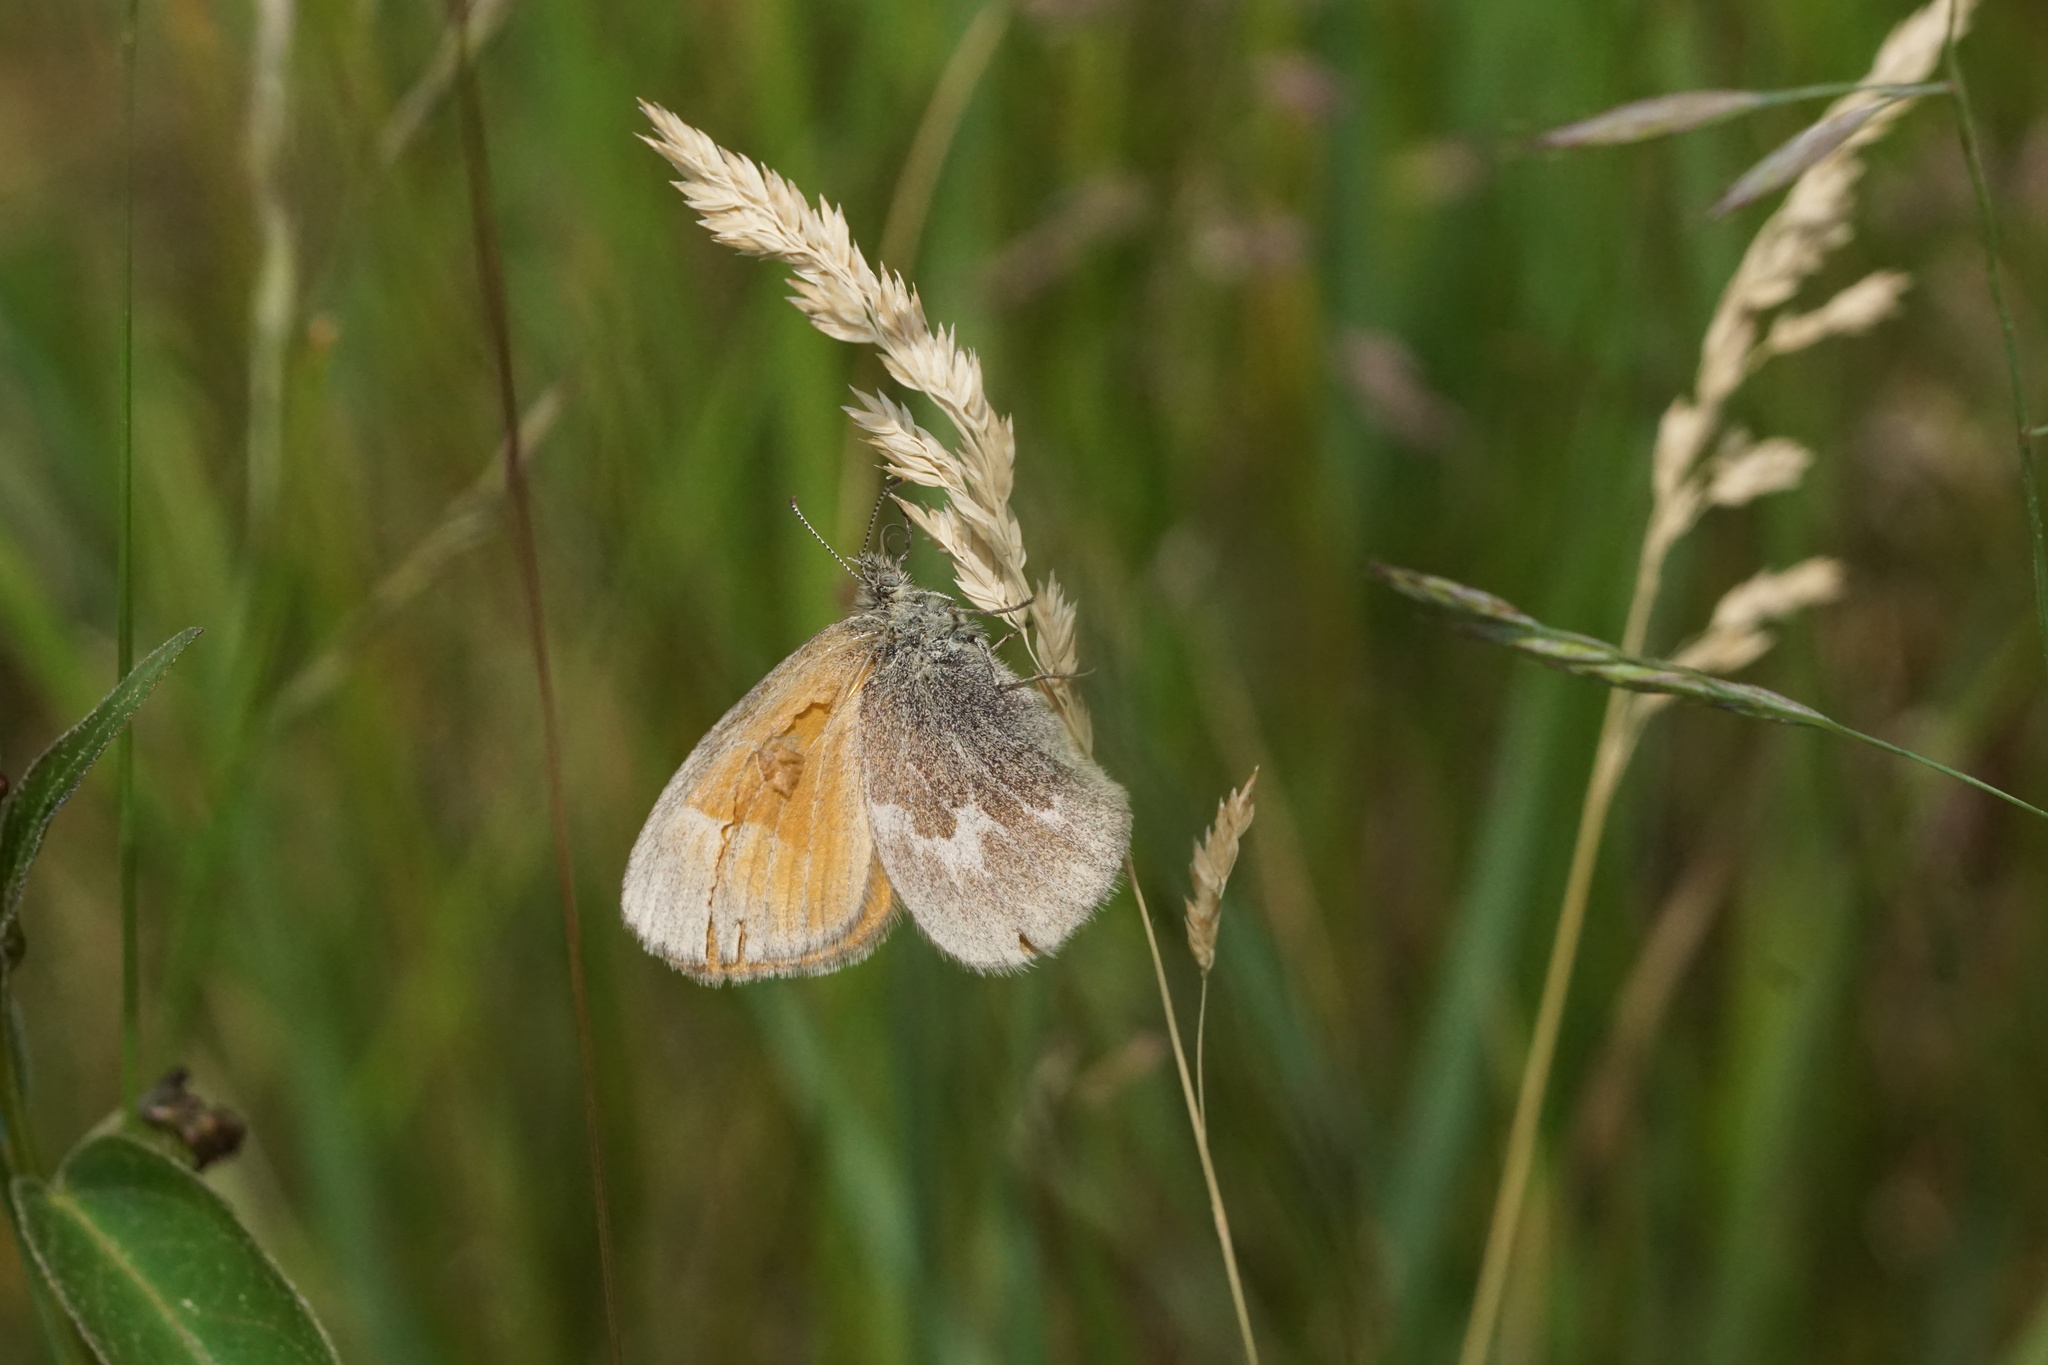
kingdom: Animalia
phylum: Arthropoda
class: Insecta
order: Lepidoptera
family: Nymphalidae
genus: Coenonympha
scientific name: Coenonympha california
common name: Common ringlet
